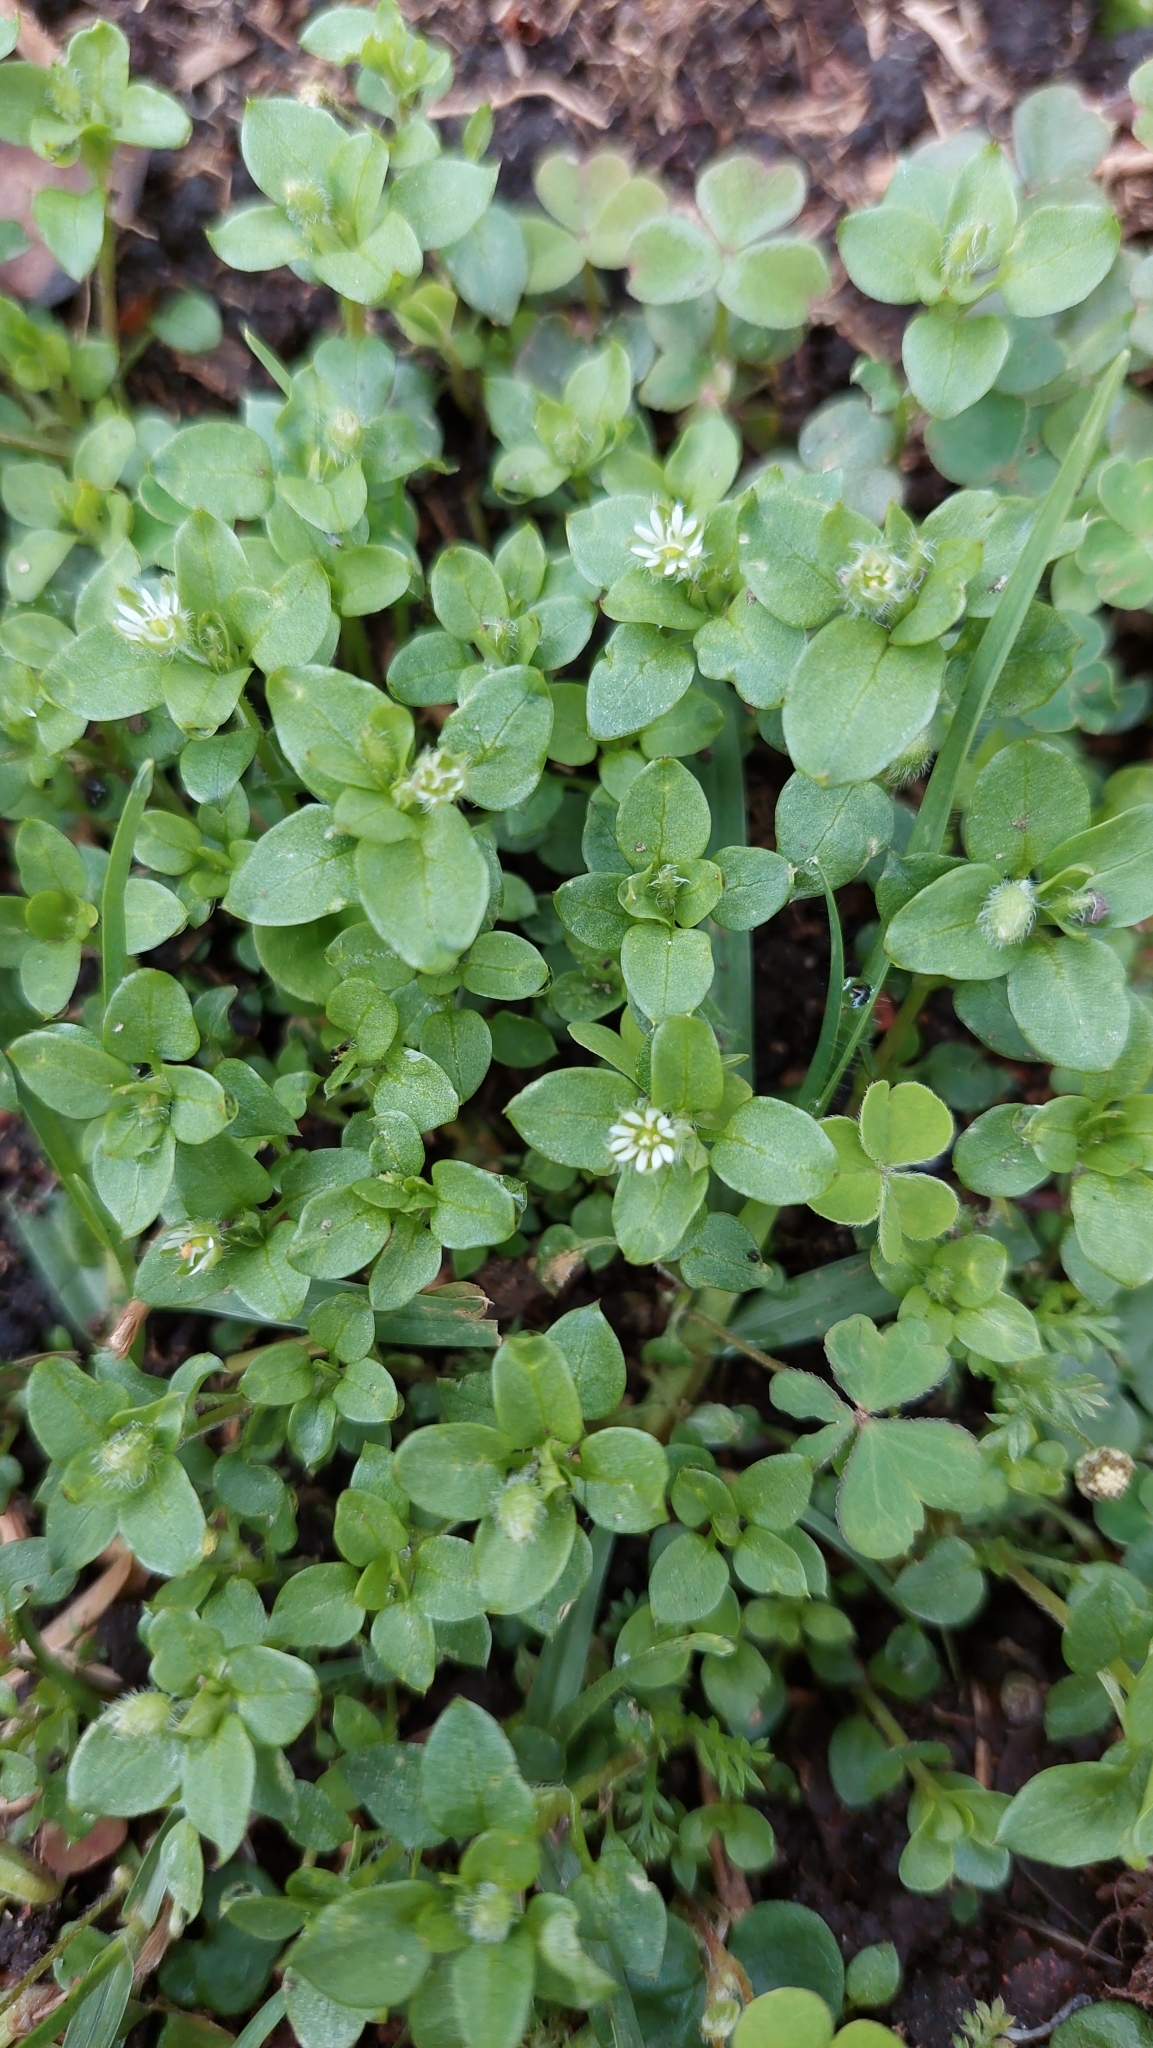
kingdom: Plantae
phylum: Tracheophyta
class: Magnoliopsida
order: Caryophyllales
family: Caryophyllaceae
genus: Stellaria
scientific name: Stellaria media
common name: Common chickweed
